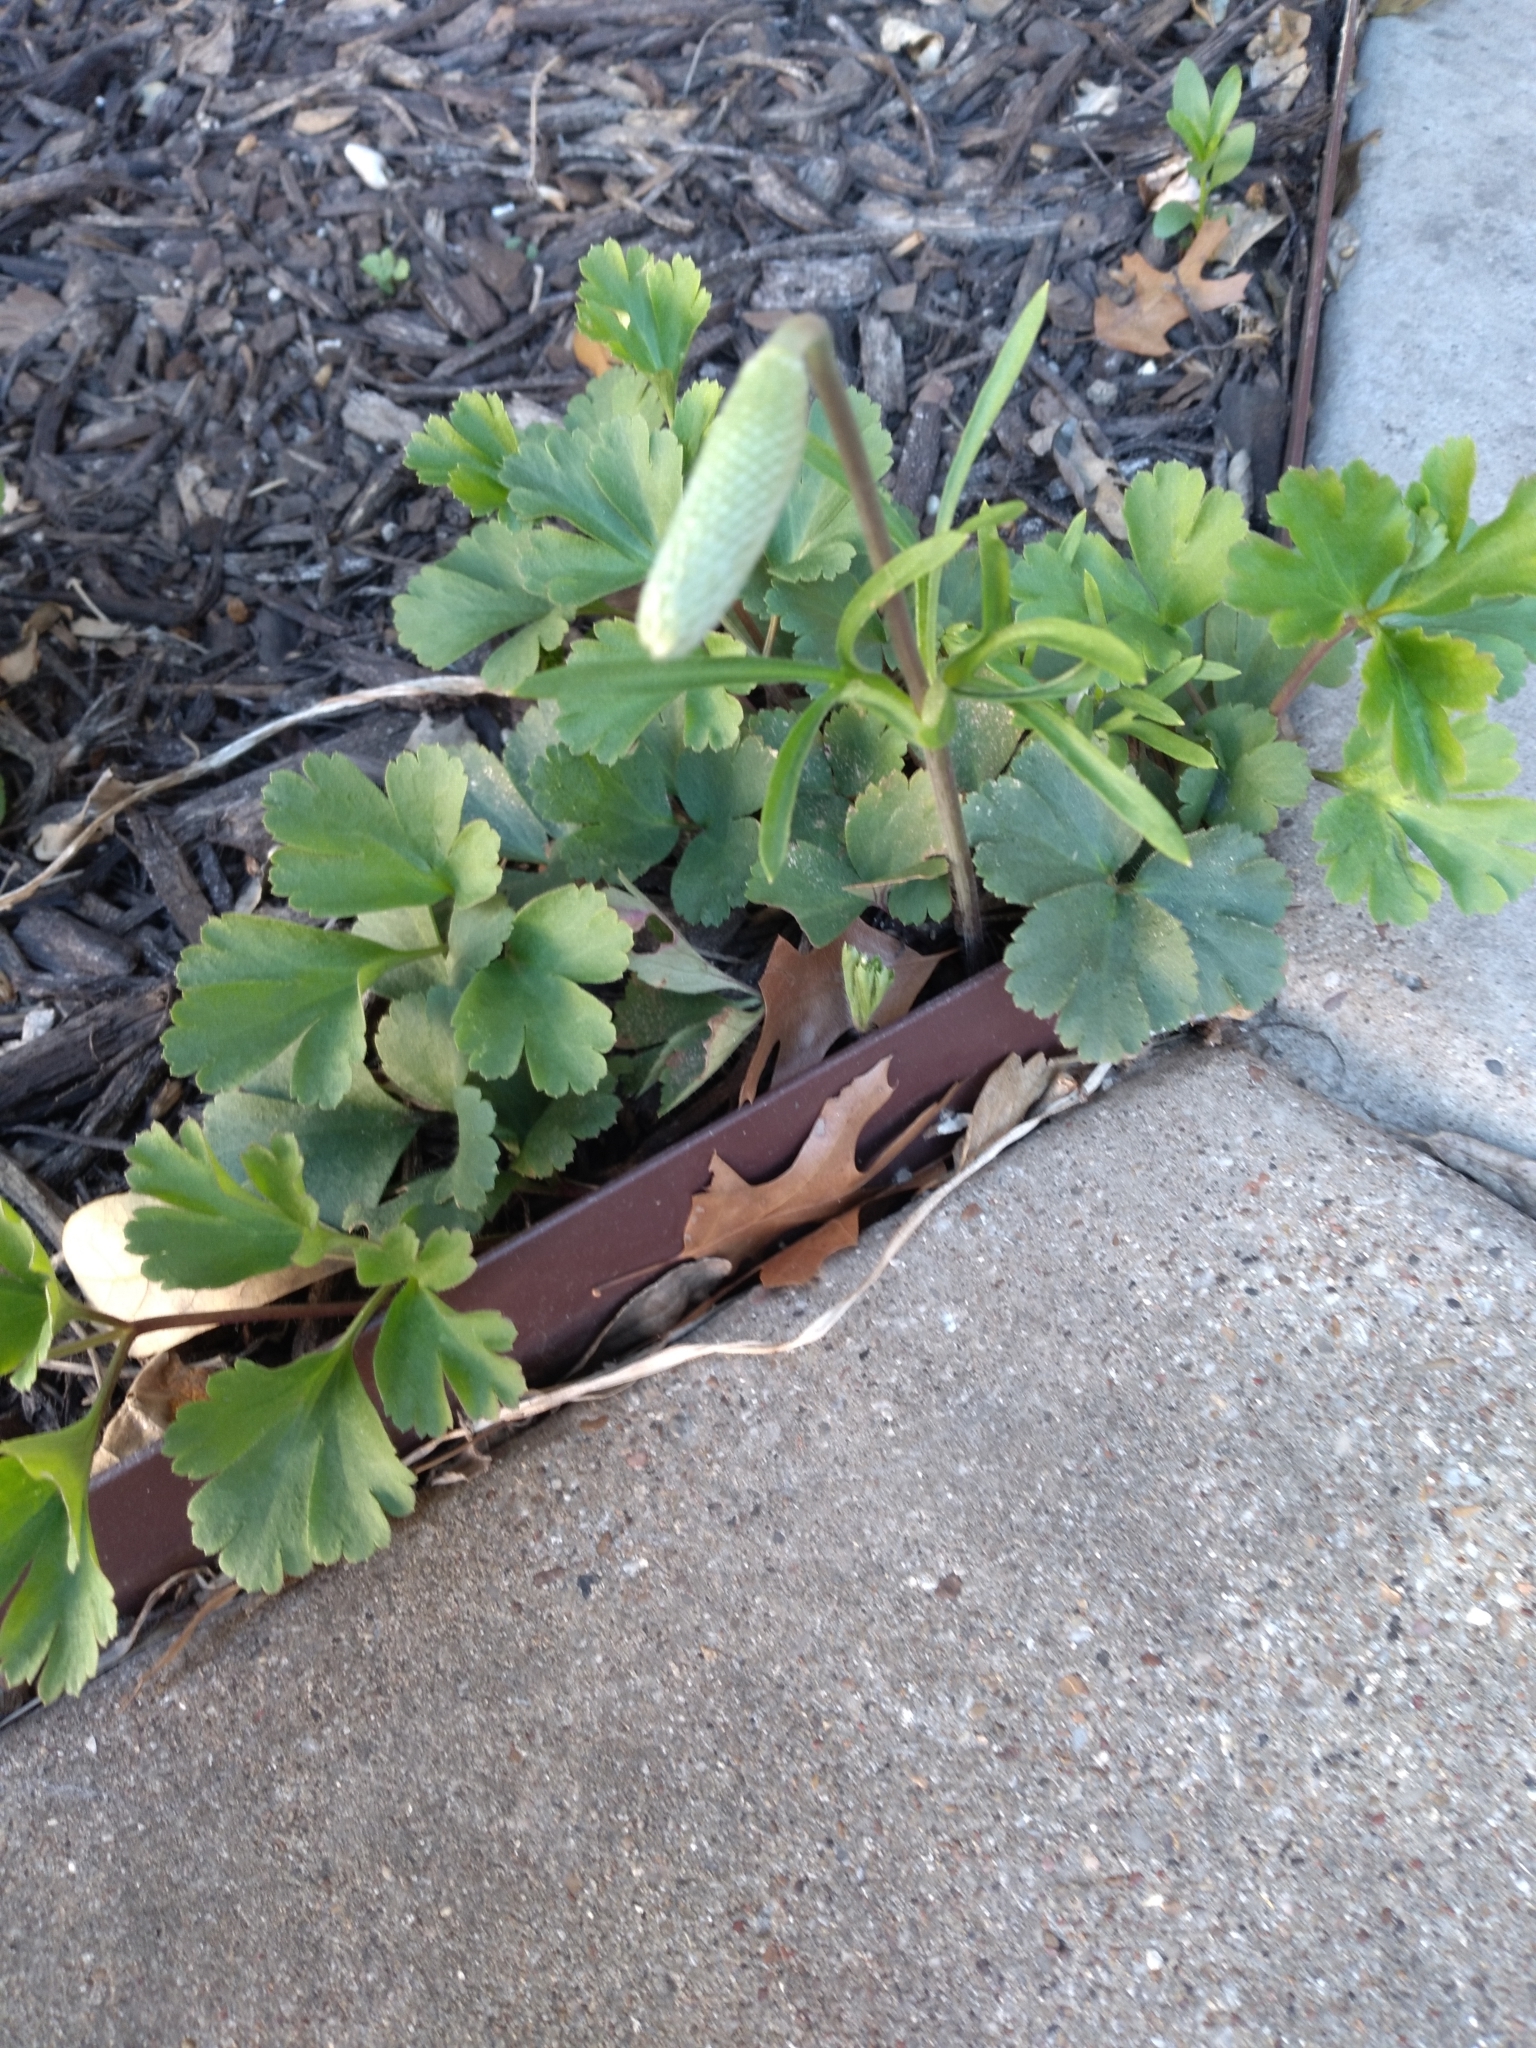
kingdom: Plantae
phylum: Tracheophyta
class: Magnoliopsida
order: Ranunculales
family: Ranunculaceae
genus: Anemone
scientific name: Anemone berlandieri
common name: Ten-petal anemone
